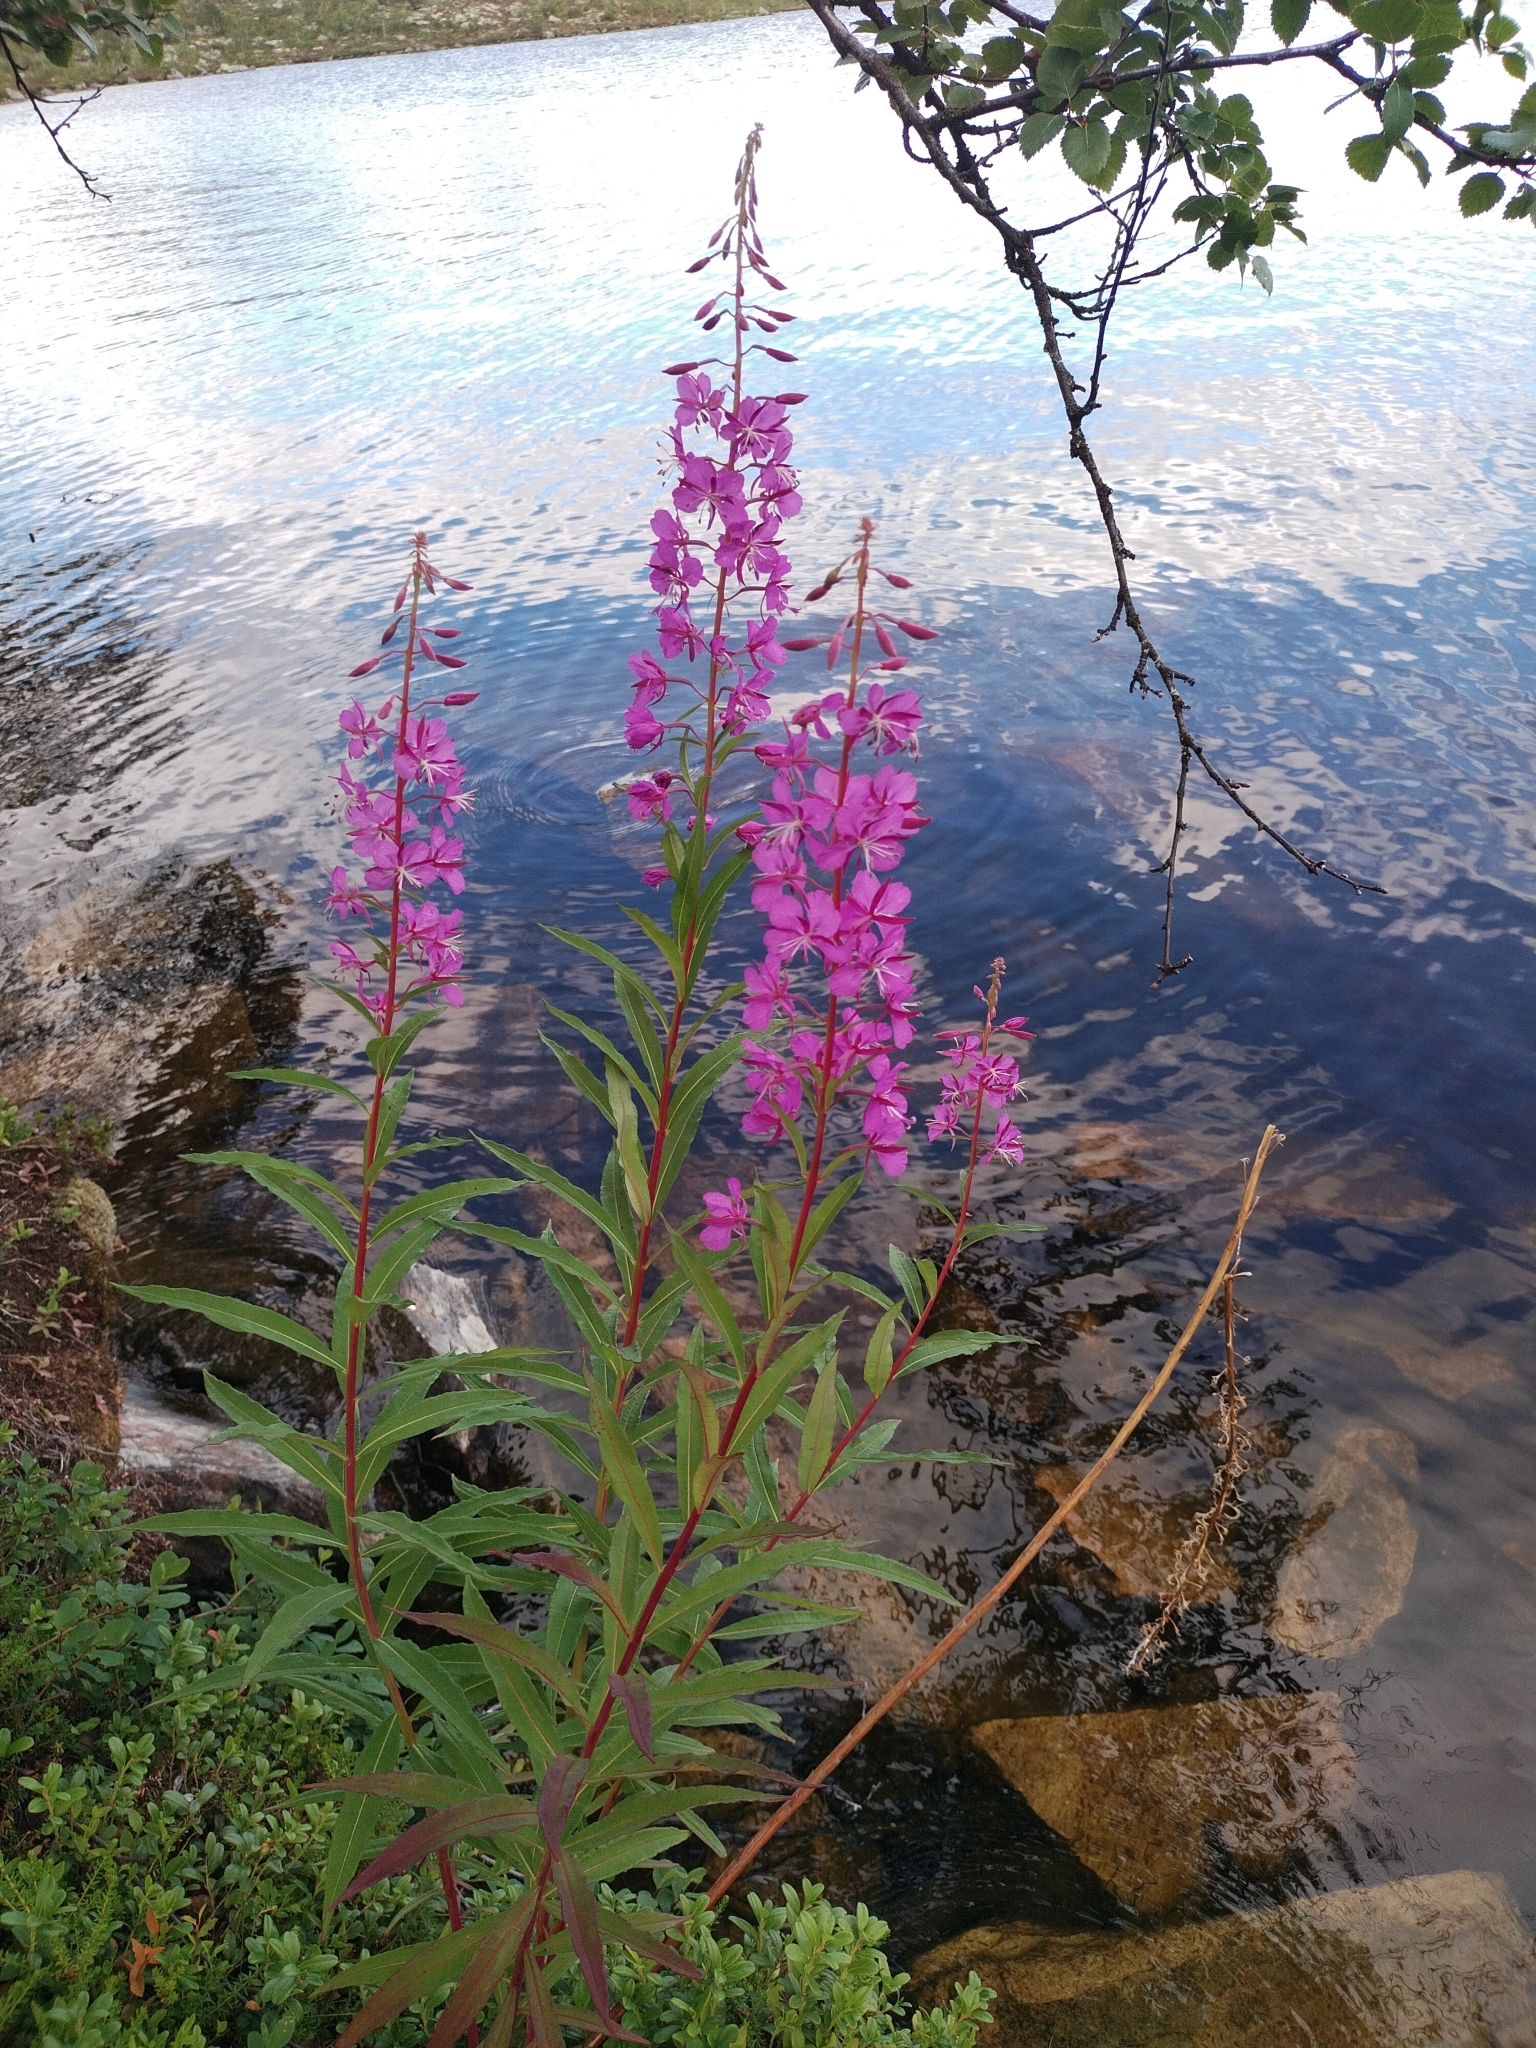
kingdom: Plantae
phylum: Tracheophyta
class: Magnoliopsida
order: Myrtales
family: Onagraceae
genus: Chamaenerion
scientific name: Chamaenerion angustifolium
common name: Fireweed
